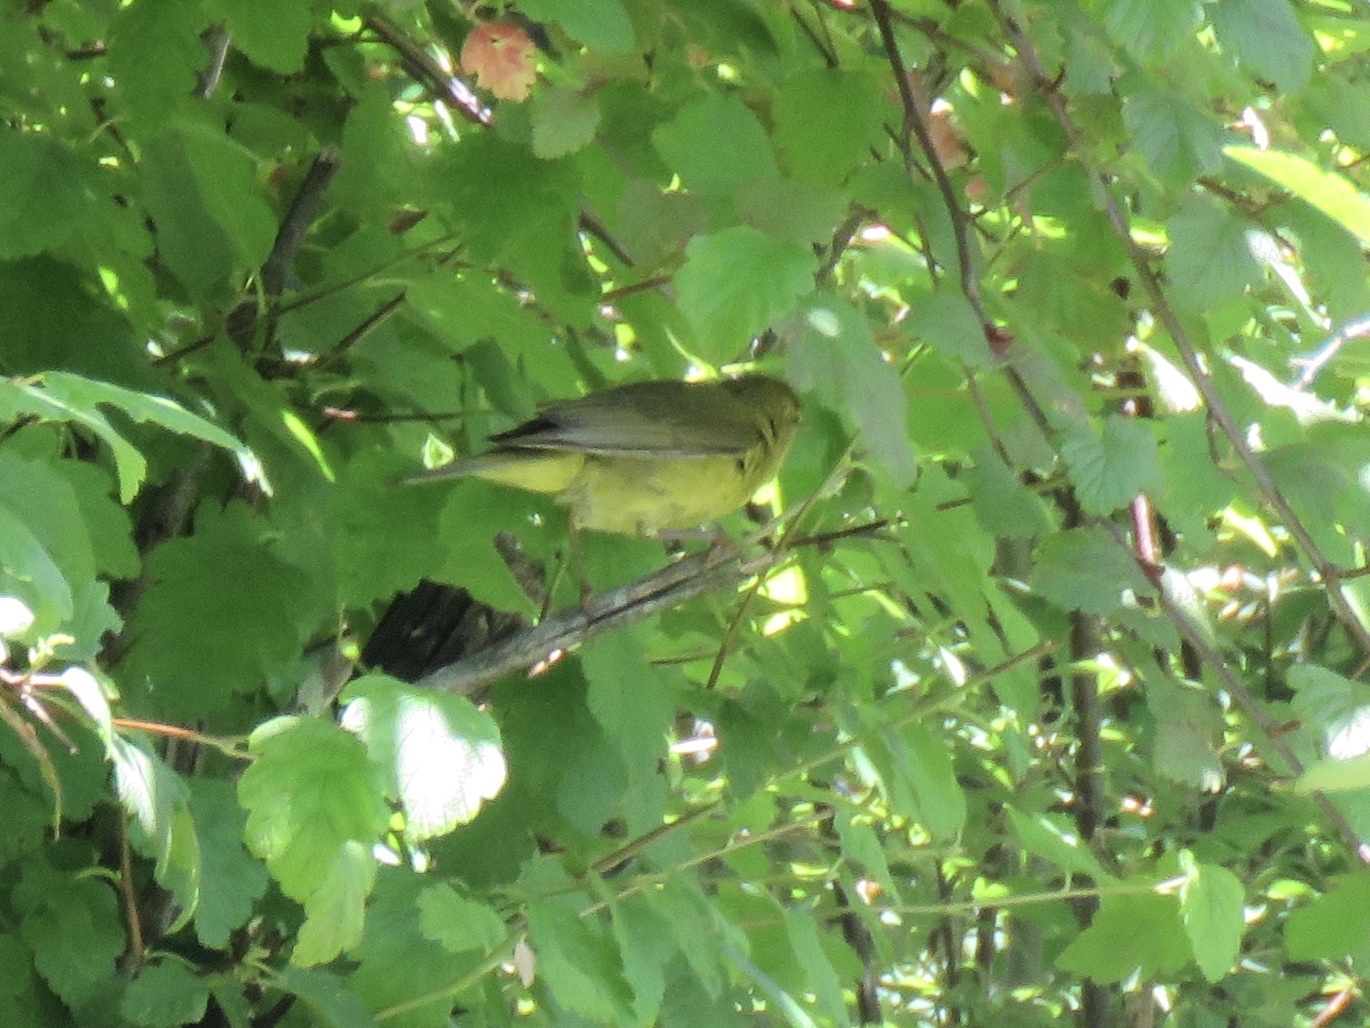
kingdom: Animalia
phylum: Chordata
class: Aves
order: Passeriformes
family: Parulidae
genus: Leiothlypis
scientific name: Leiothlypis celata
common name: Orange-crowned warbler
